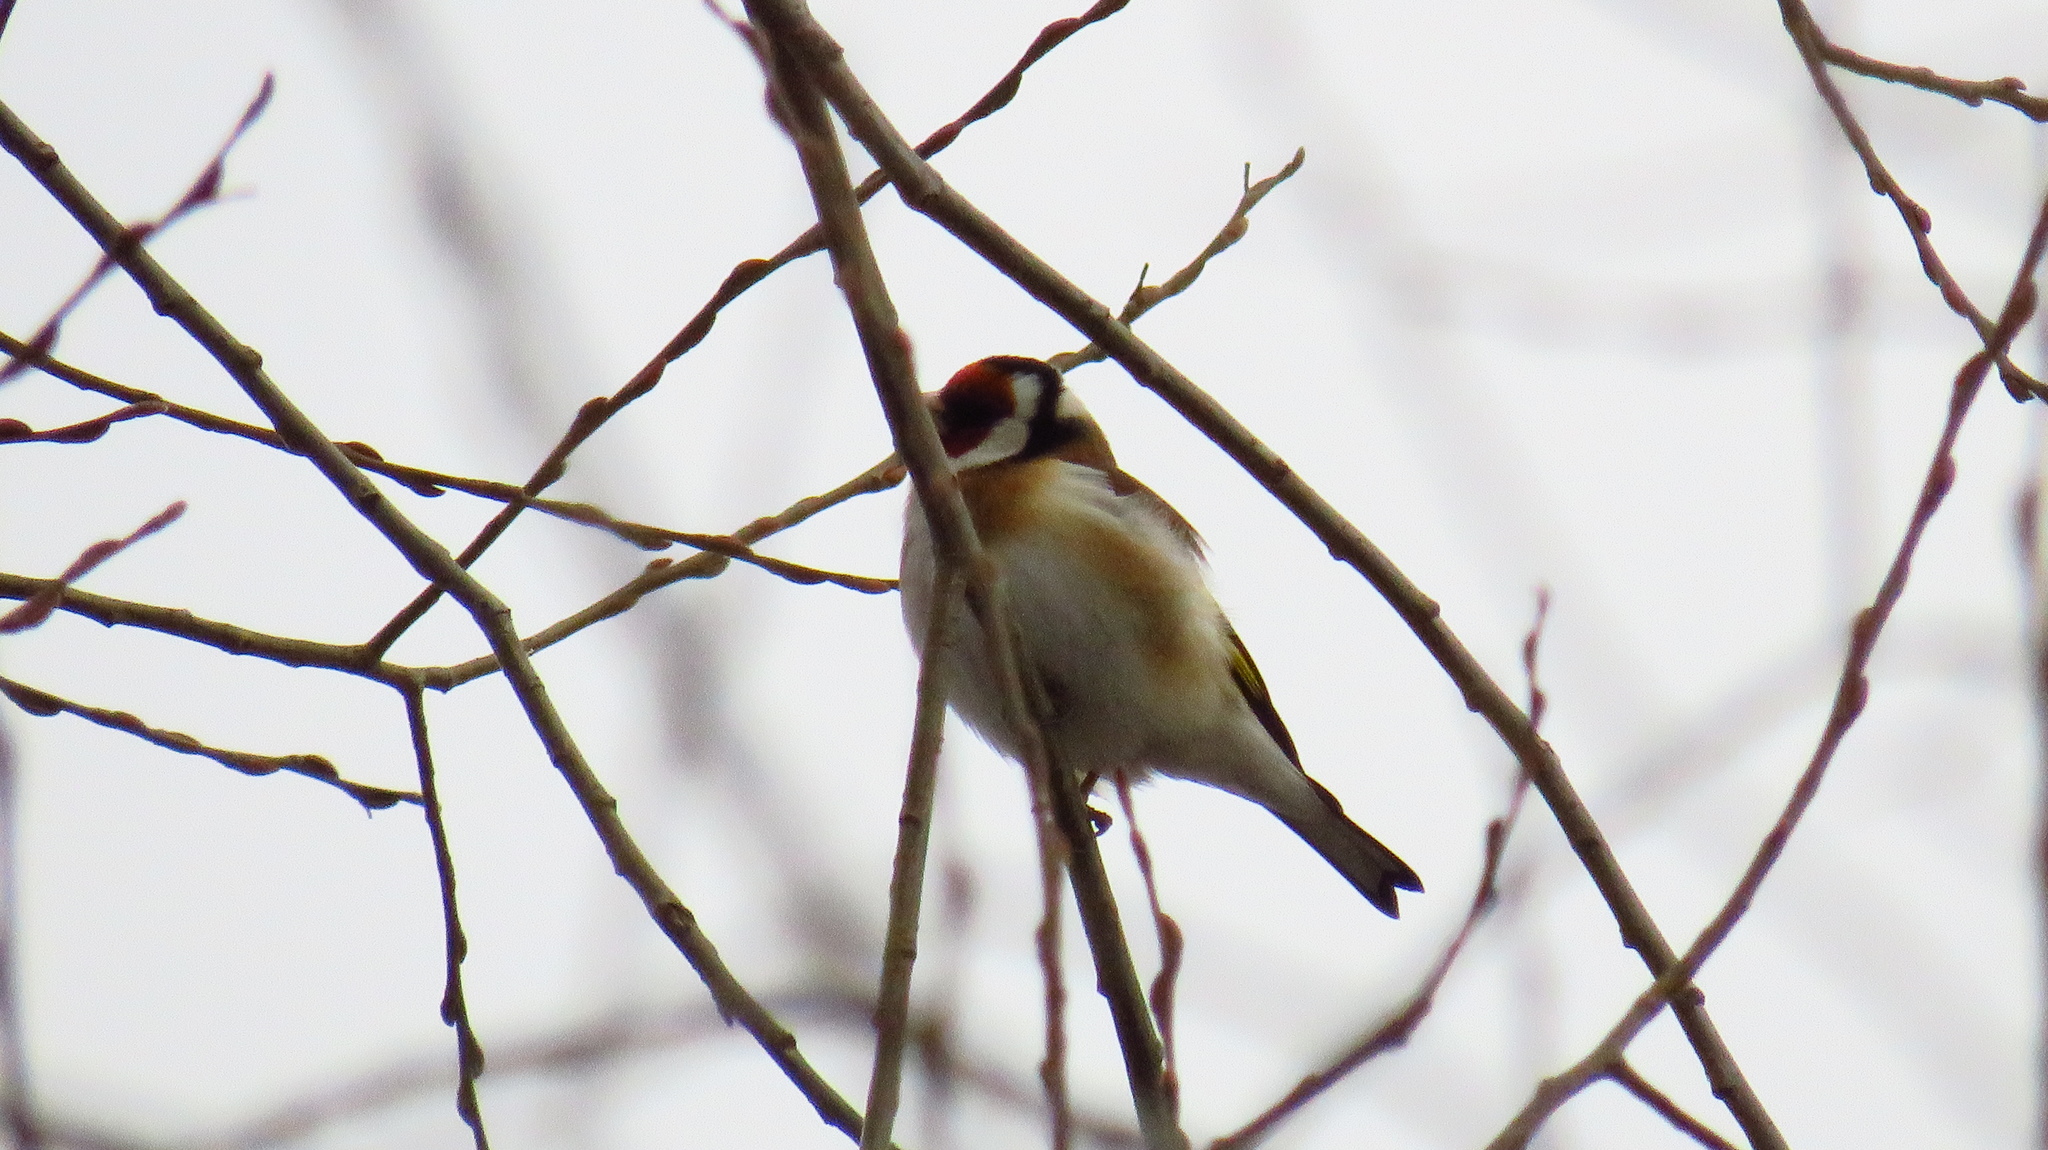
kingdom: Animalia
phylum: Chordata
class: Aves
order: Passeriformes
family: Fringillidae
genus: Carduelis
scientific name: Carduelis carduelis
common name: European goldfinch
